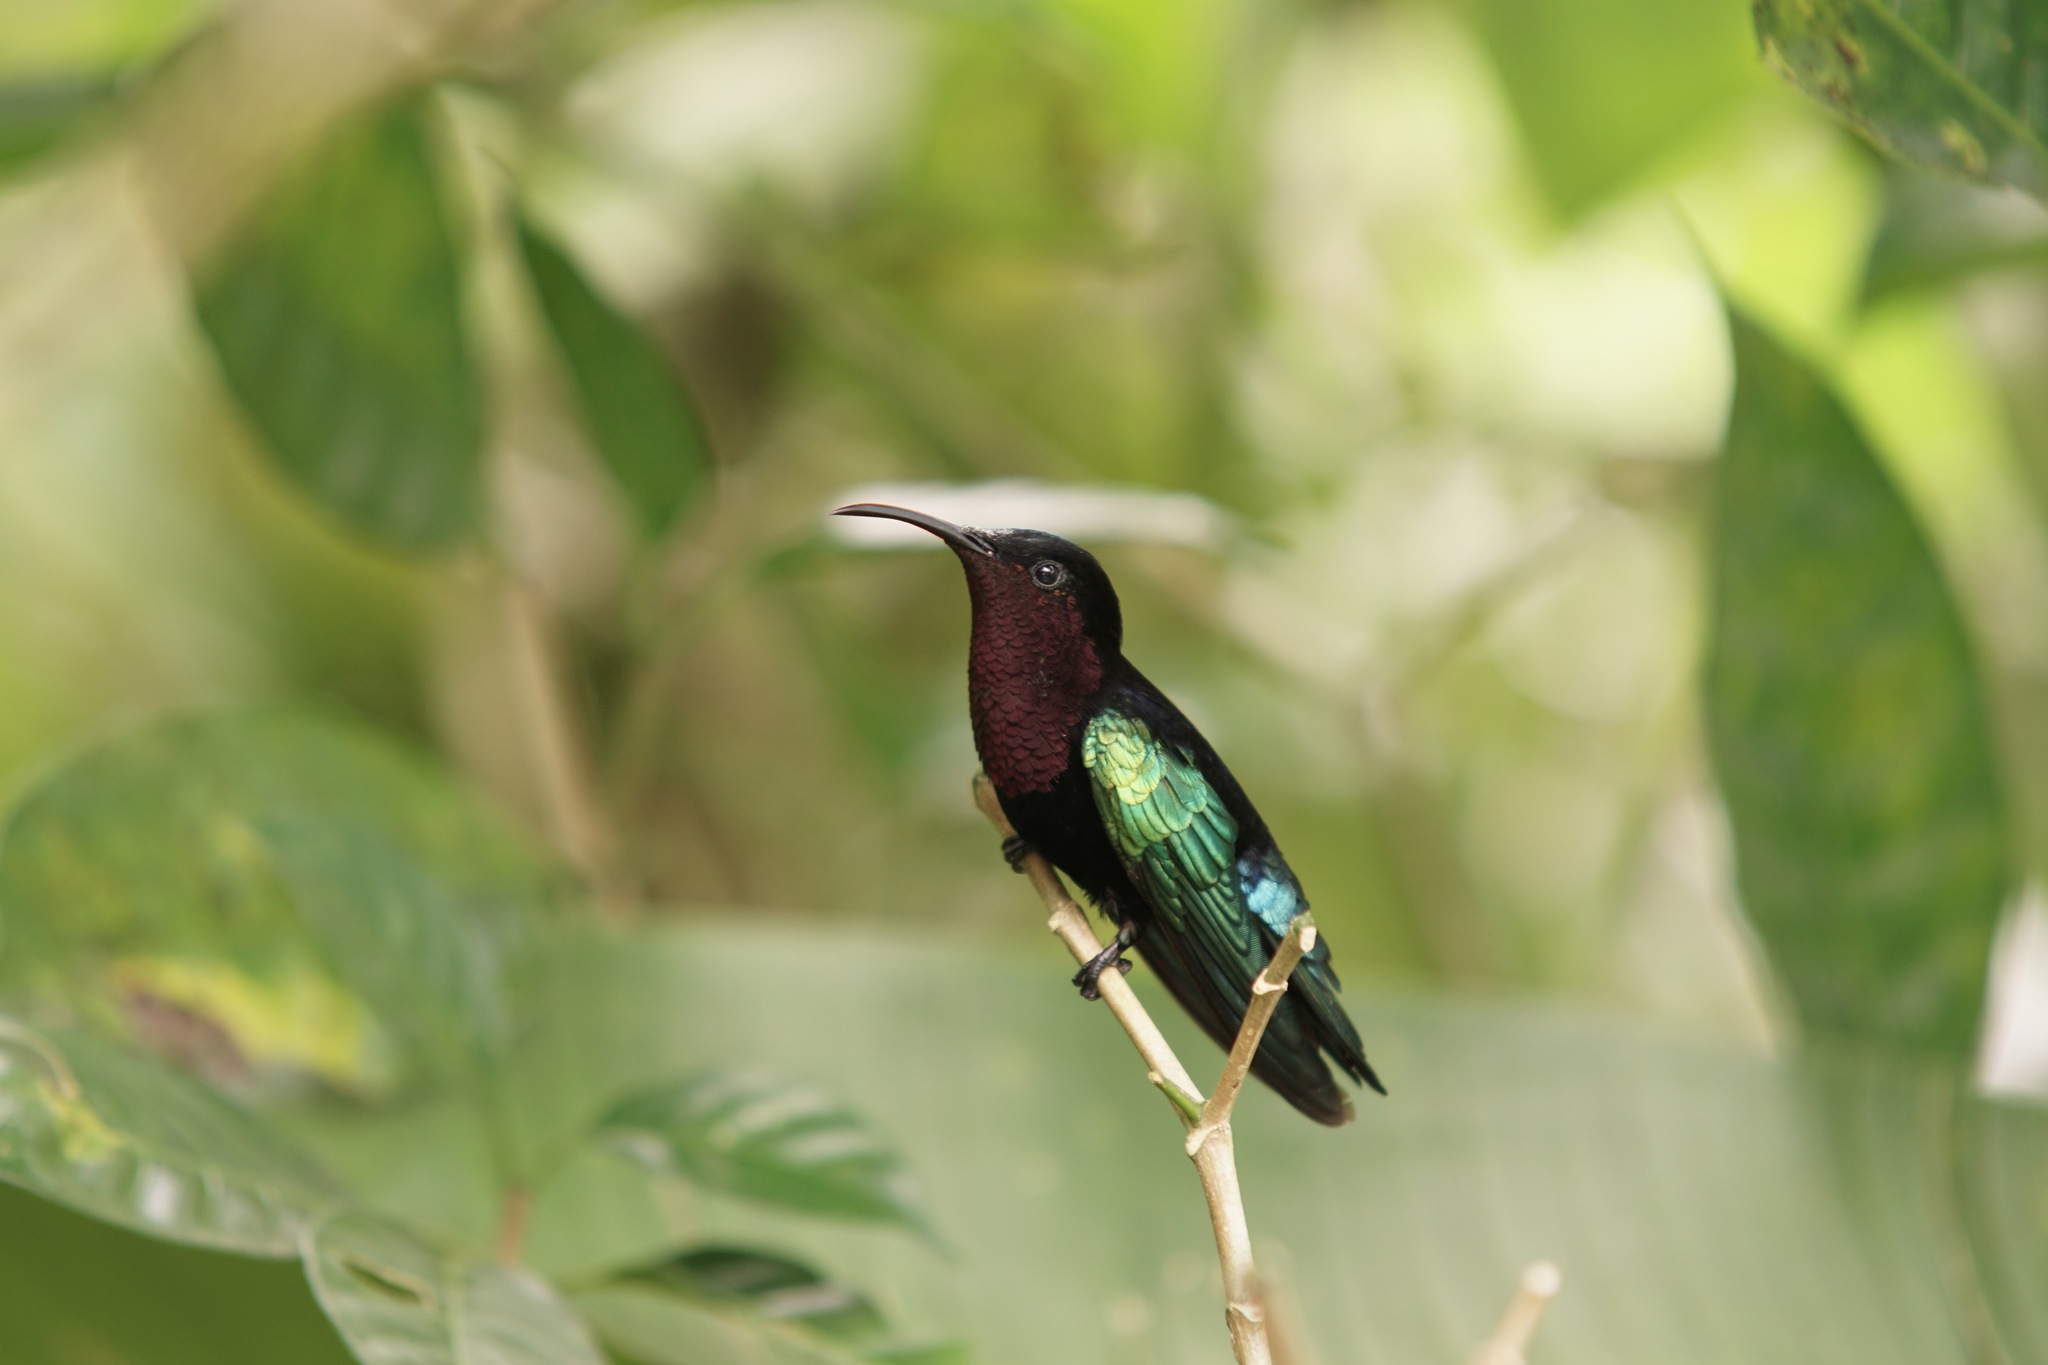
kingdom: Animalia
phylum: Chordata
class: Aves
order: Apodiformes
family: Trochilidae
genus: Eulampis
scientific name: Eulampis jugularis
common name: Purple-throated carib
